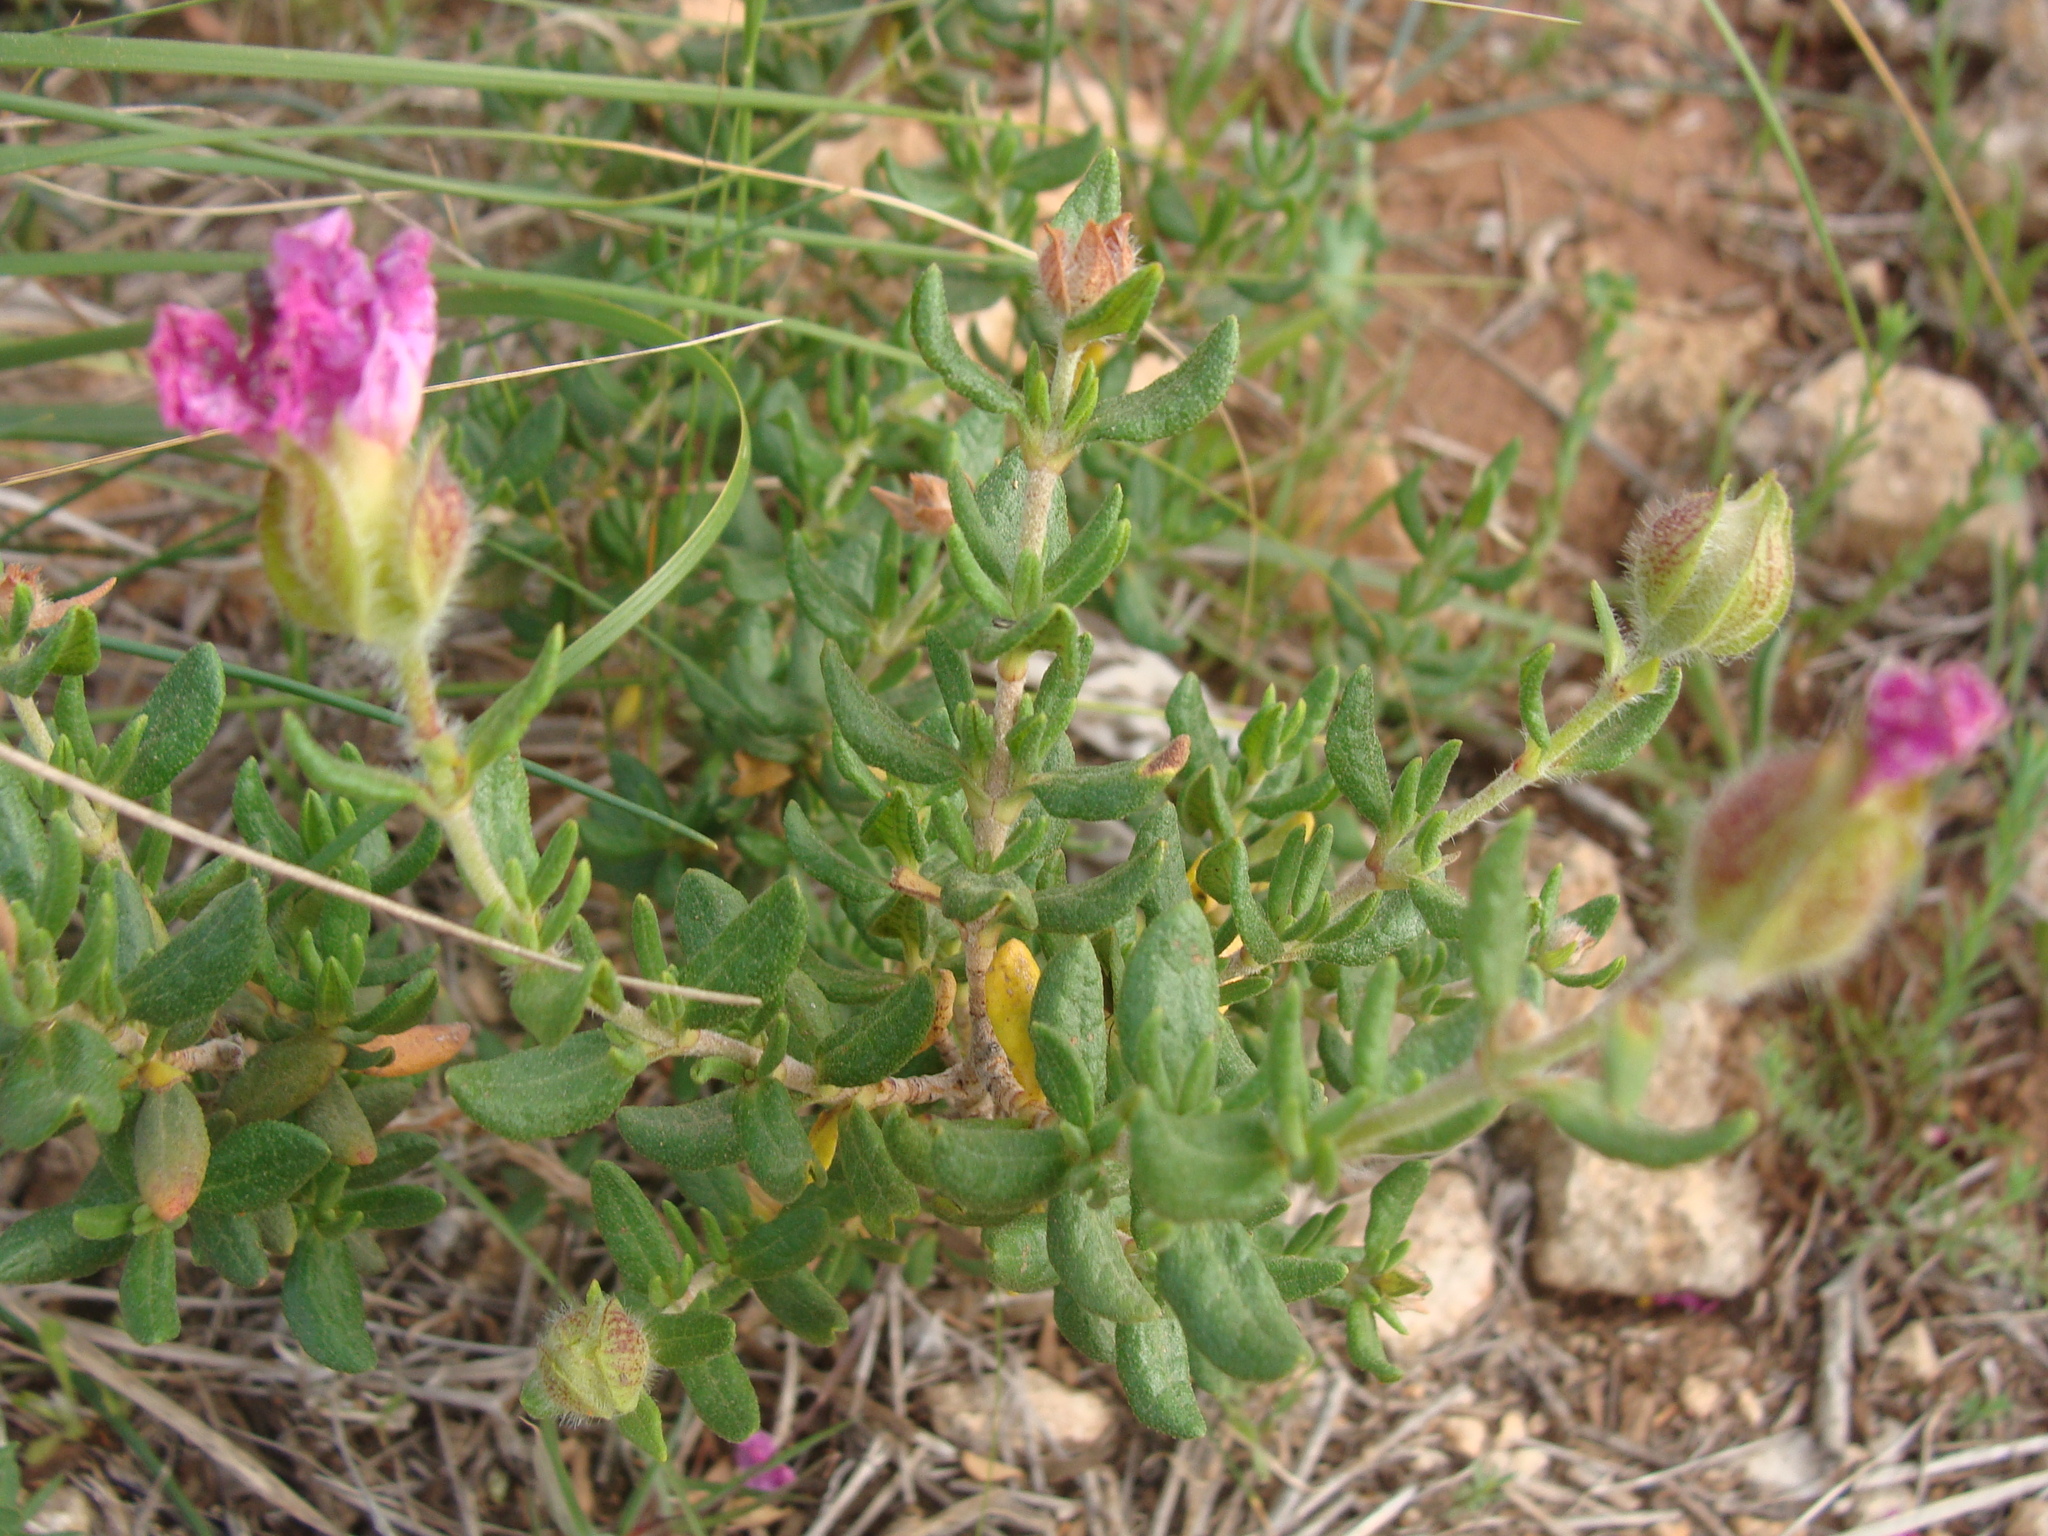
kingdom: Plantae
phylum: Tracheophyta
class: Magnoliopsida
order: Malvales
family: Cistaceae
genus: Cistus
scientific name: Cistus heterophyllus
